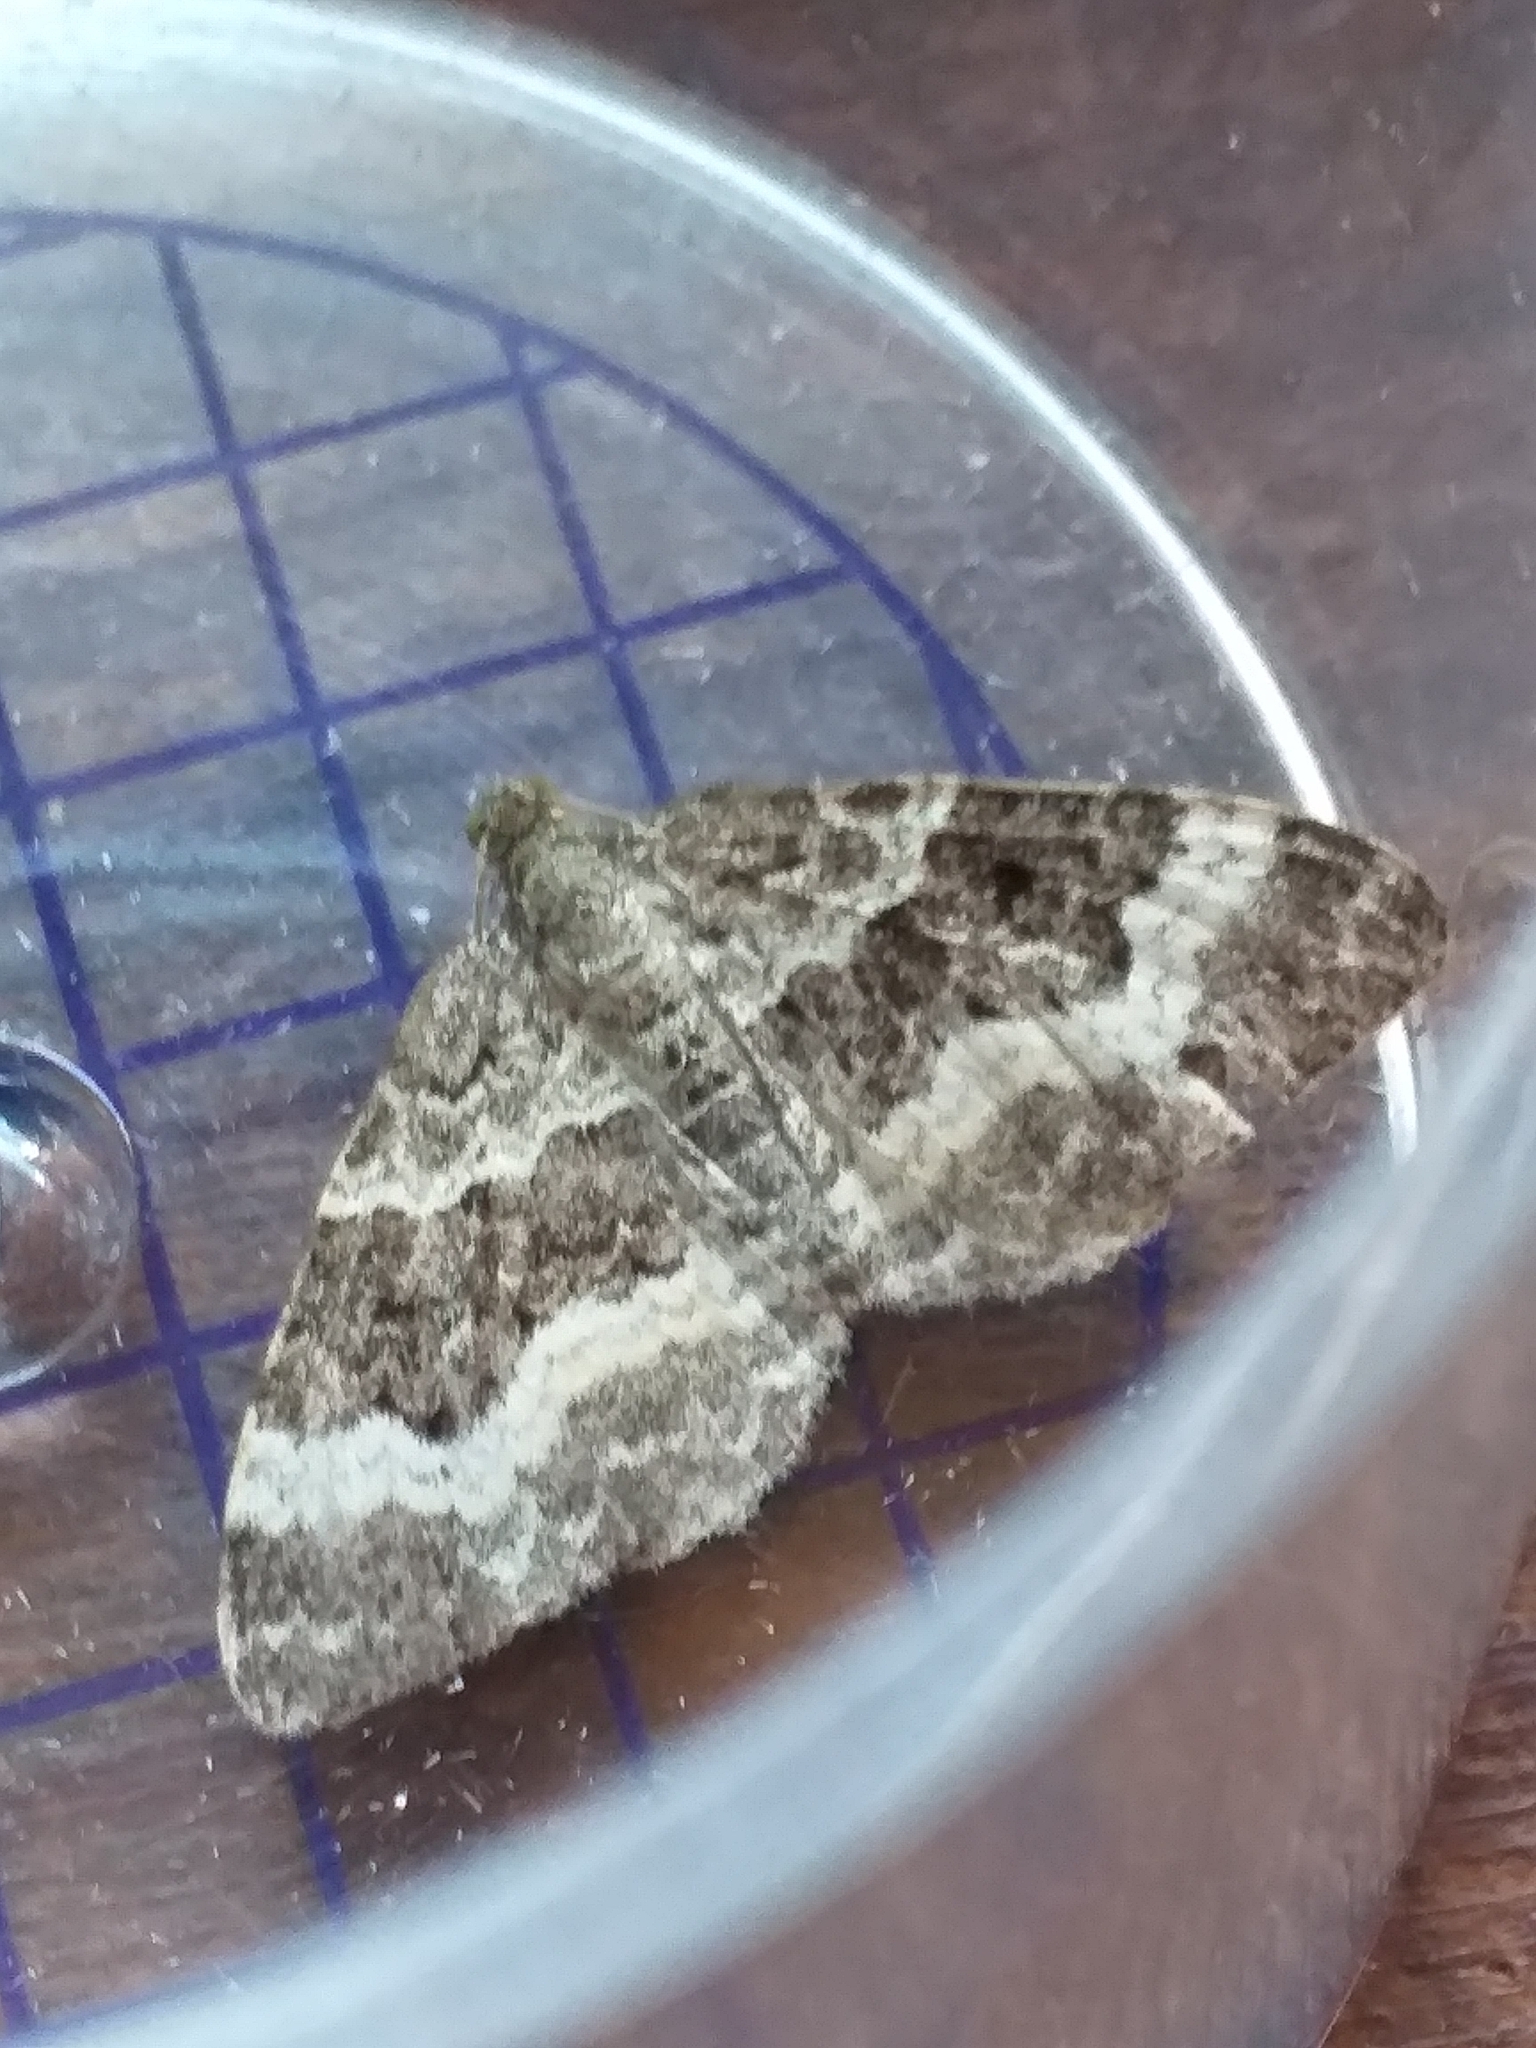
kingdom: Animalia
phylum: Arthropoda
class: Insecta
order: Lepidoptera
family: Geometridae
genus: Epirrhoe
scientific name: Epirrhoe alternata
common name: Common carpet
